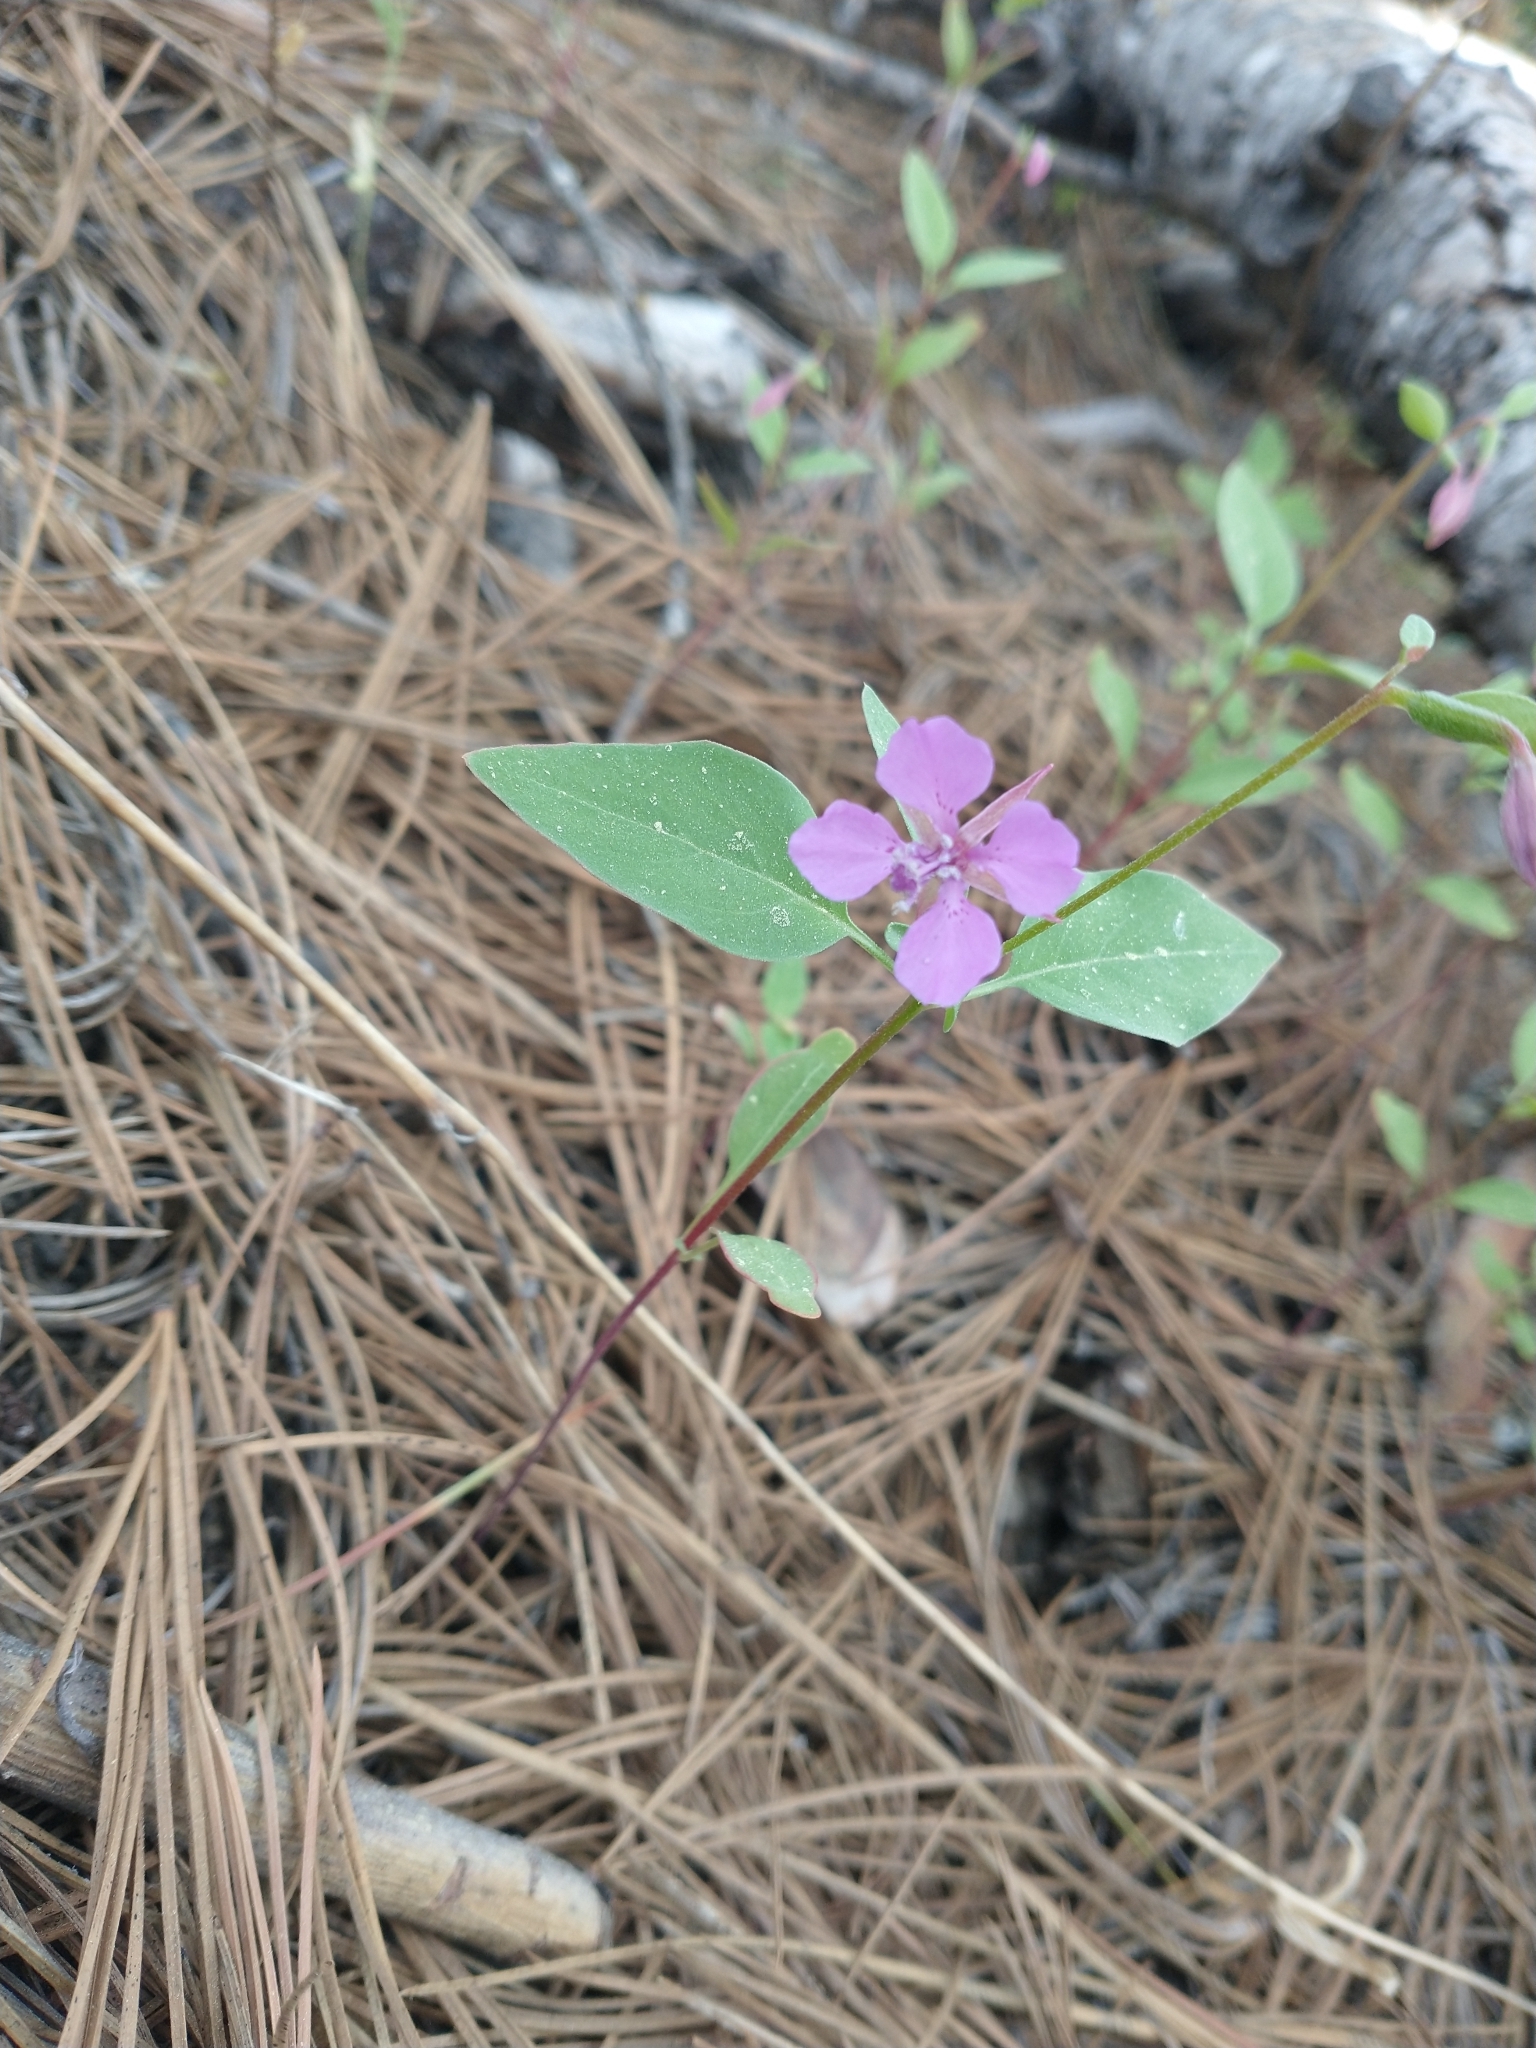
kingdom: Plantae
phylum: Tracheophyta
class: Magnoliopsida
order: Myrtales
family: Onagraceae
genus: Clarkia
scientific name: Clarkia rhomboidea
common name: Broadleaf clarkia
